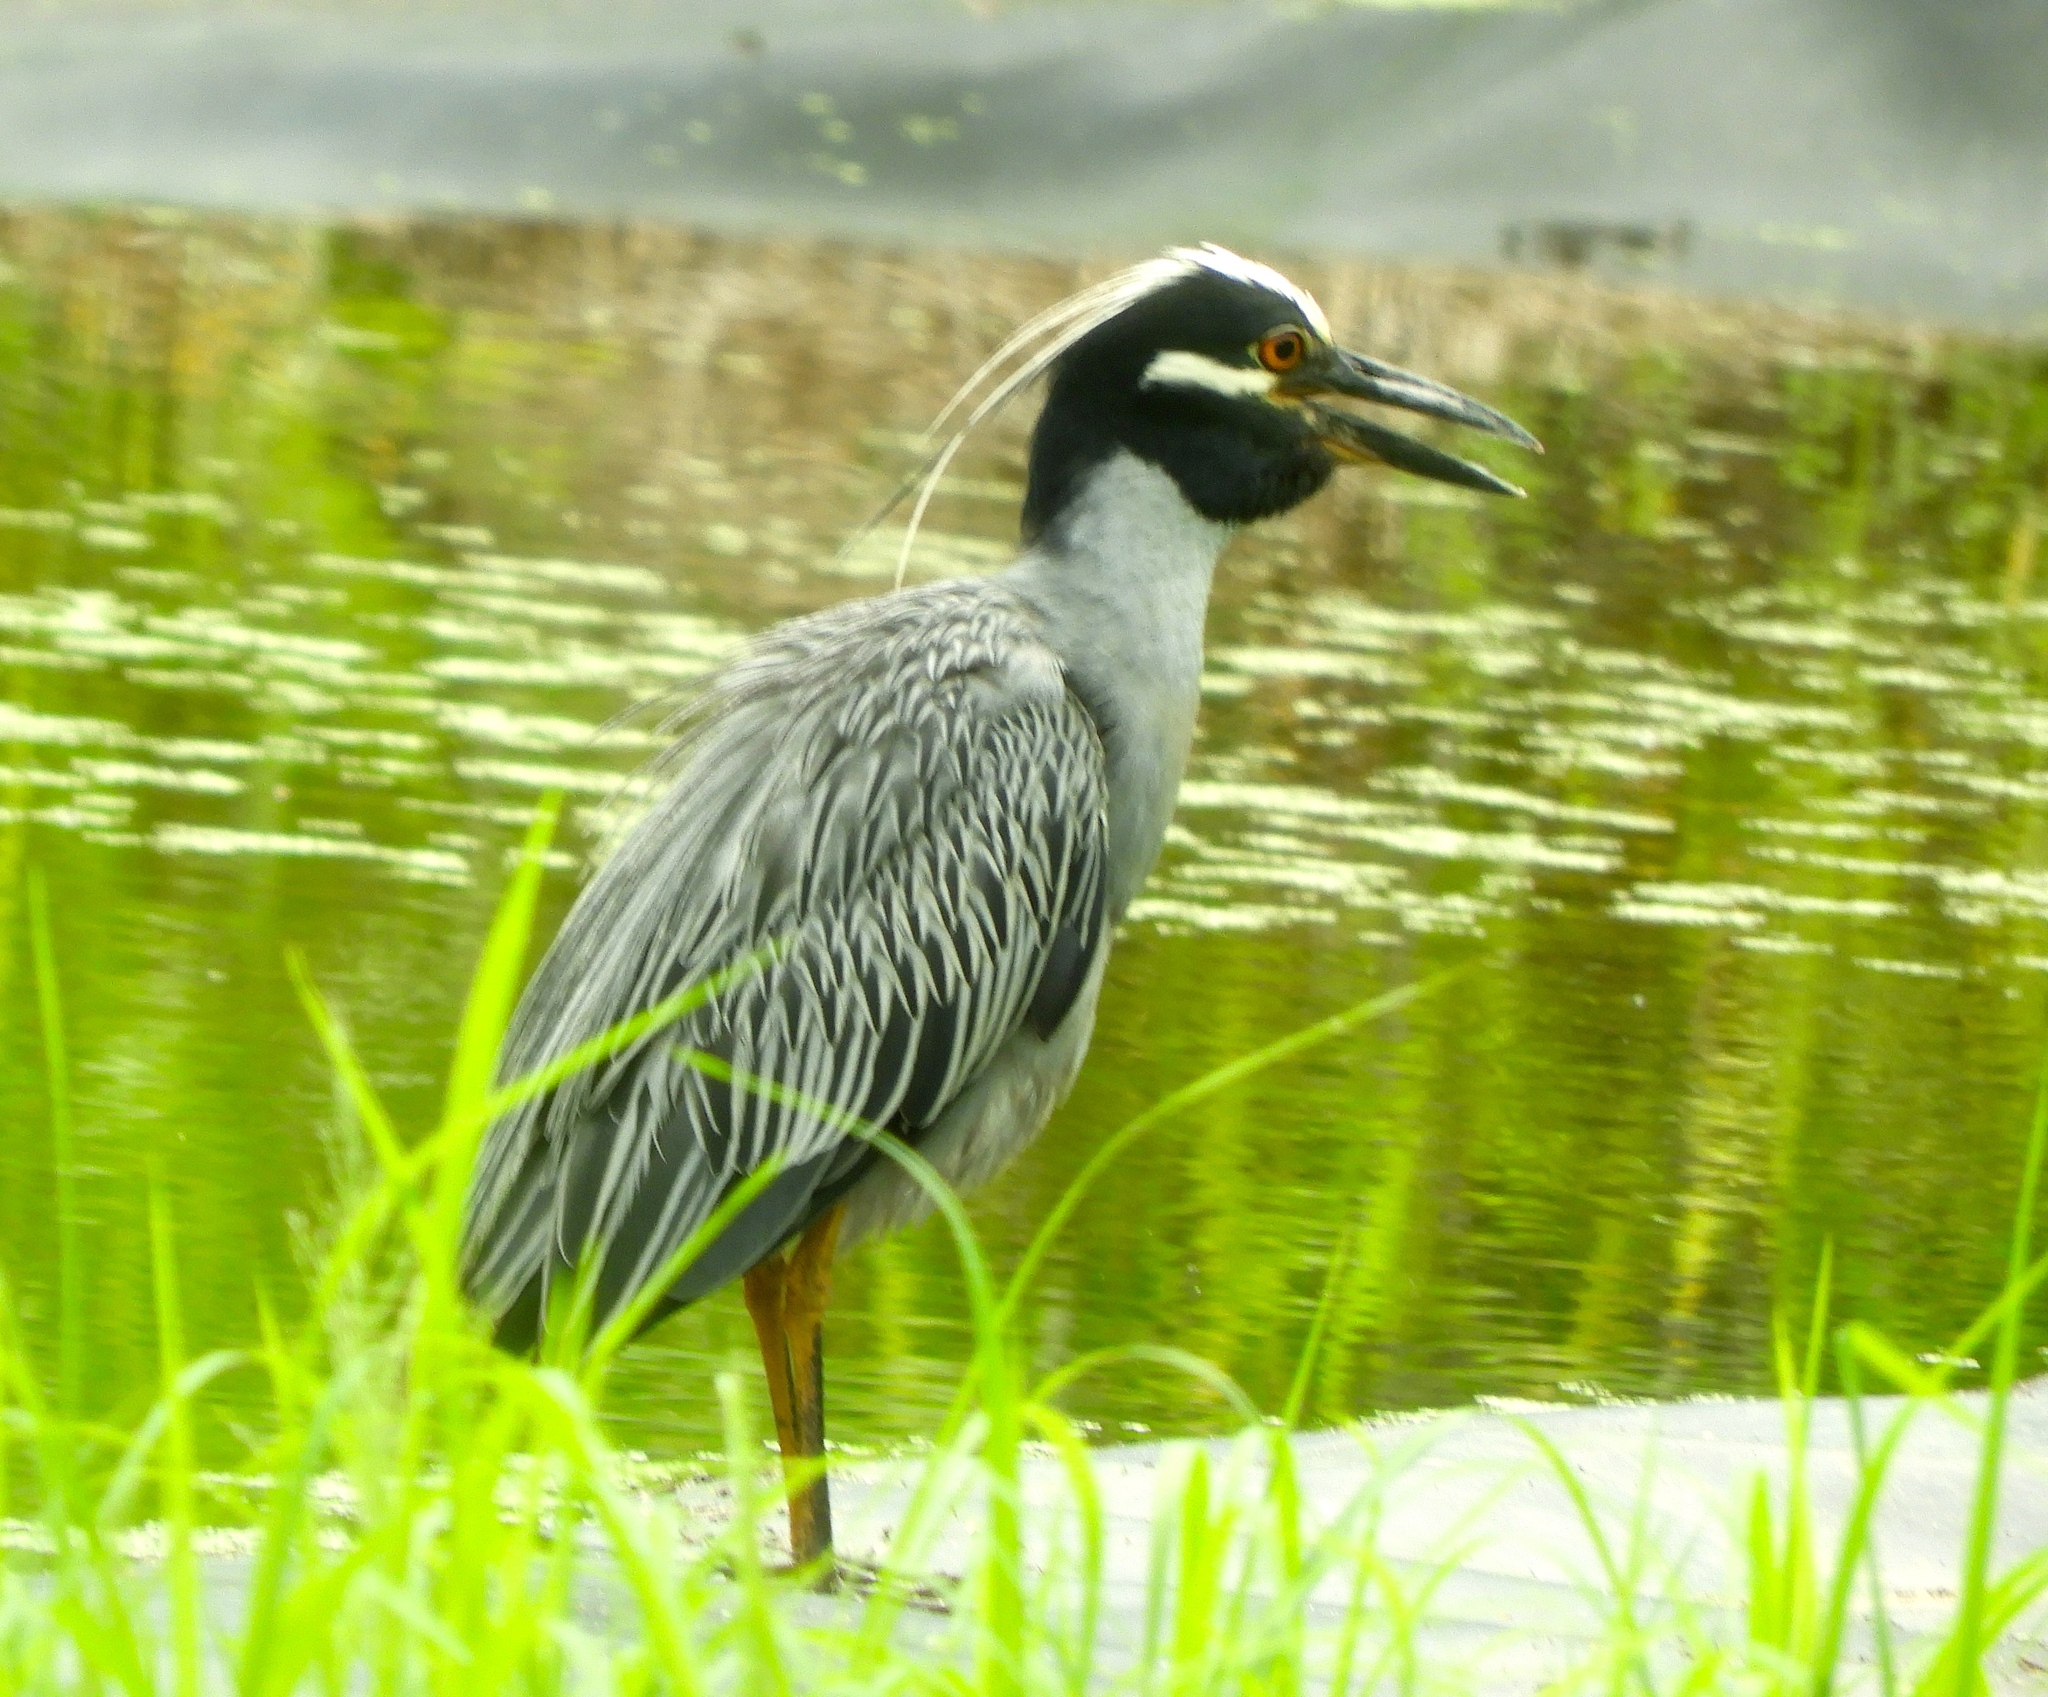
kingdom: Animalia
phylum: Chordata
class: Aves
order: Pelecaniformes
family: Ardeidae
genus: Nyctanassa
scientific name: Nyctanassa violacea
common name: Yellow-crowned night heron
